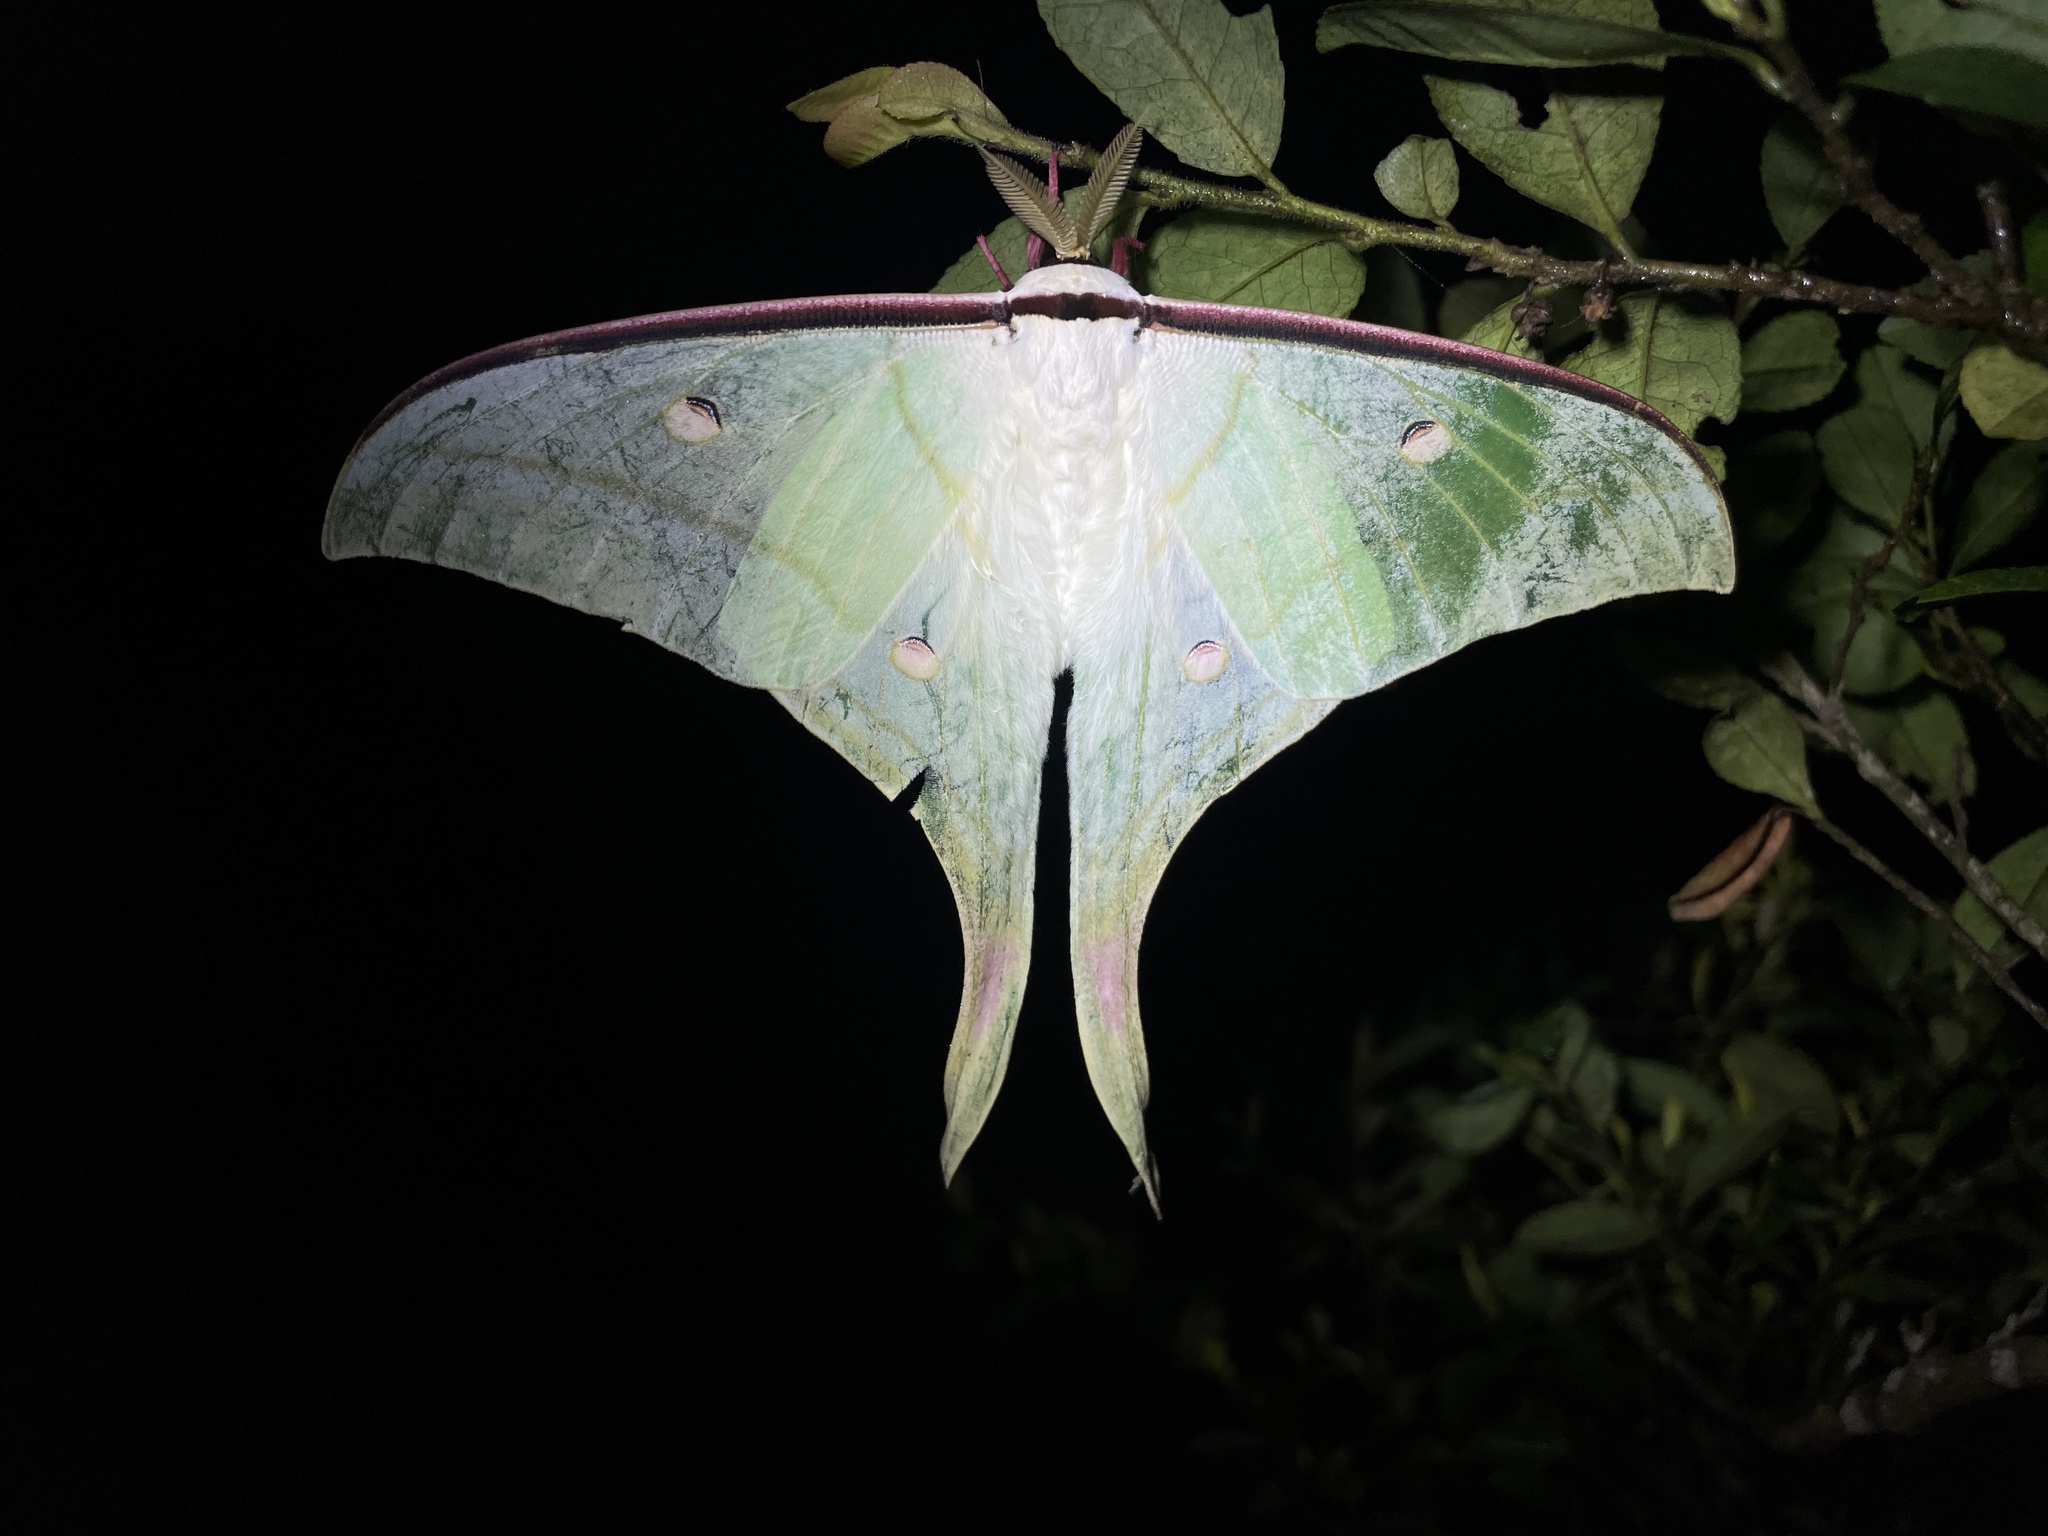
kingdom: Animalia
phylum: Arthropoda
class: Insecta
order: Lepidoptera
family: Saturniidae
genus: Actias
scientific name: Actias ningpoana
